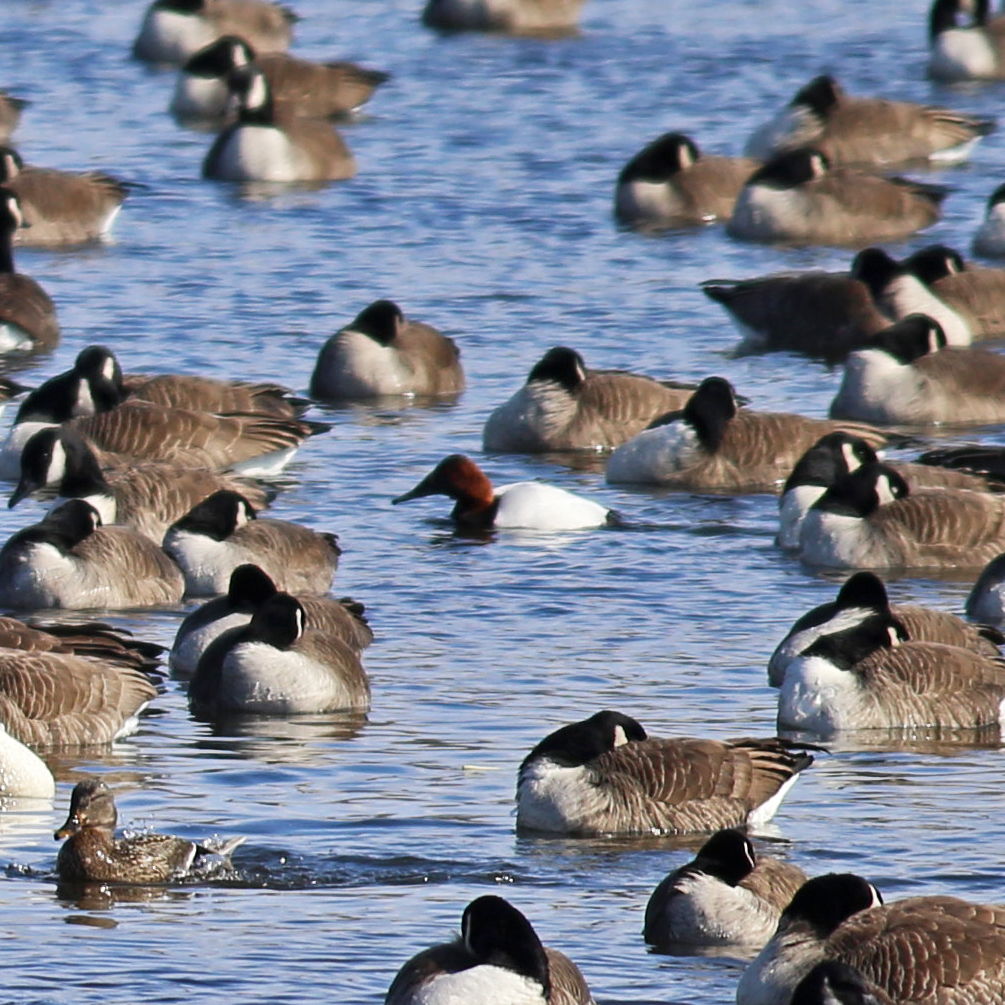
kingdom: Animalia
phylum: Chordata
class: Aves
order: Anseriformes
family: Anatidae
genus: Aythya
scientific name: Aythya valisineria
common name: Canvasback
